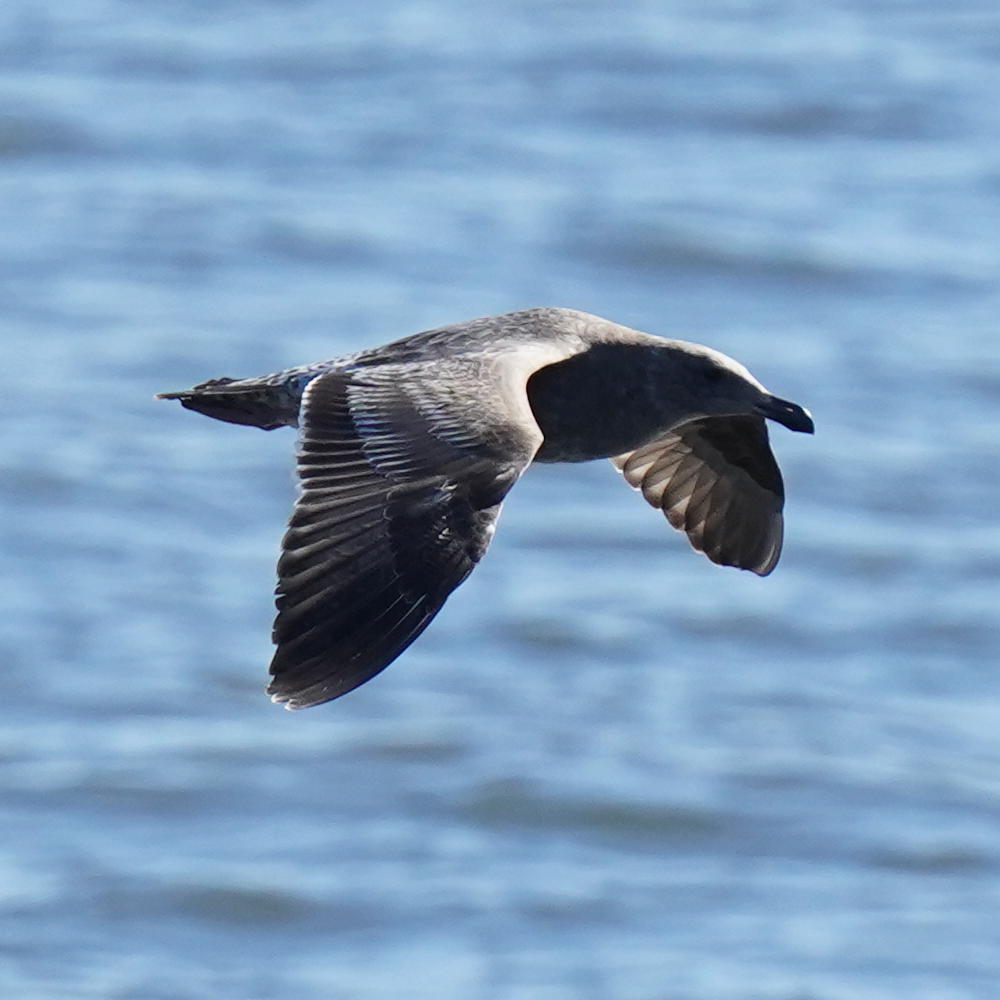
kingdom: Animalia
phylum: Chordata
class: Aves
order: Charadriiformes
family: Laridae
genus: Larus
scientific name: Larus occidentalis
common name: Western gull
